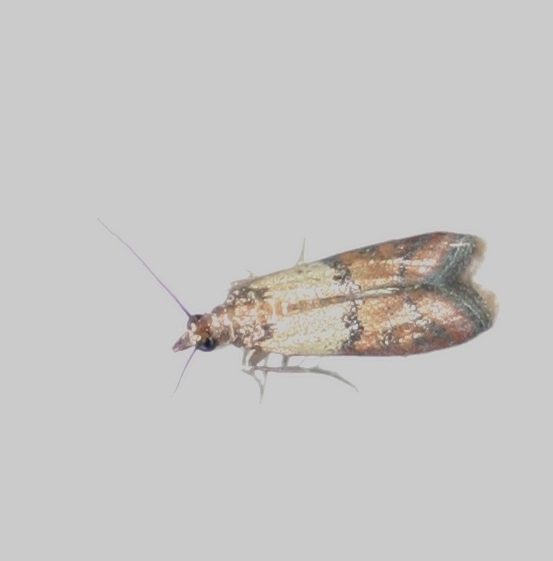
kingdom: Animalia
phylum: Arthropoda
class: Insecta
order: Lepidoptera
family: Pyralidae
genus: Plodia
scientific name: Plodia interpunctella
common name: Indian meal moth
